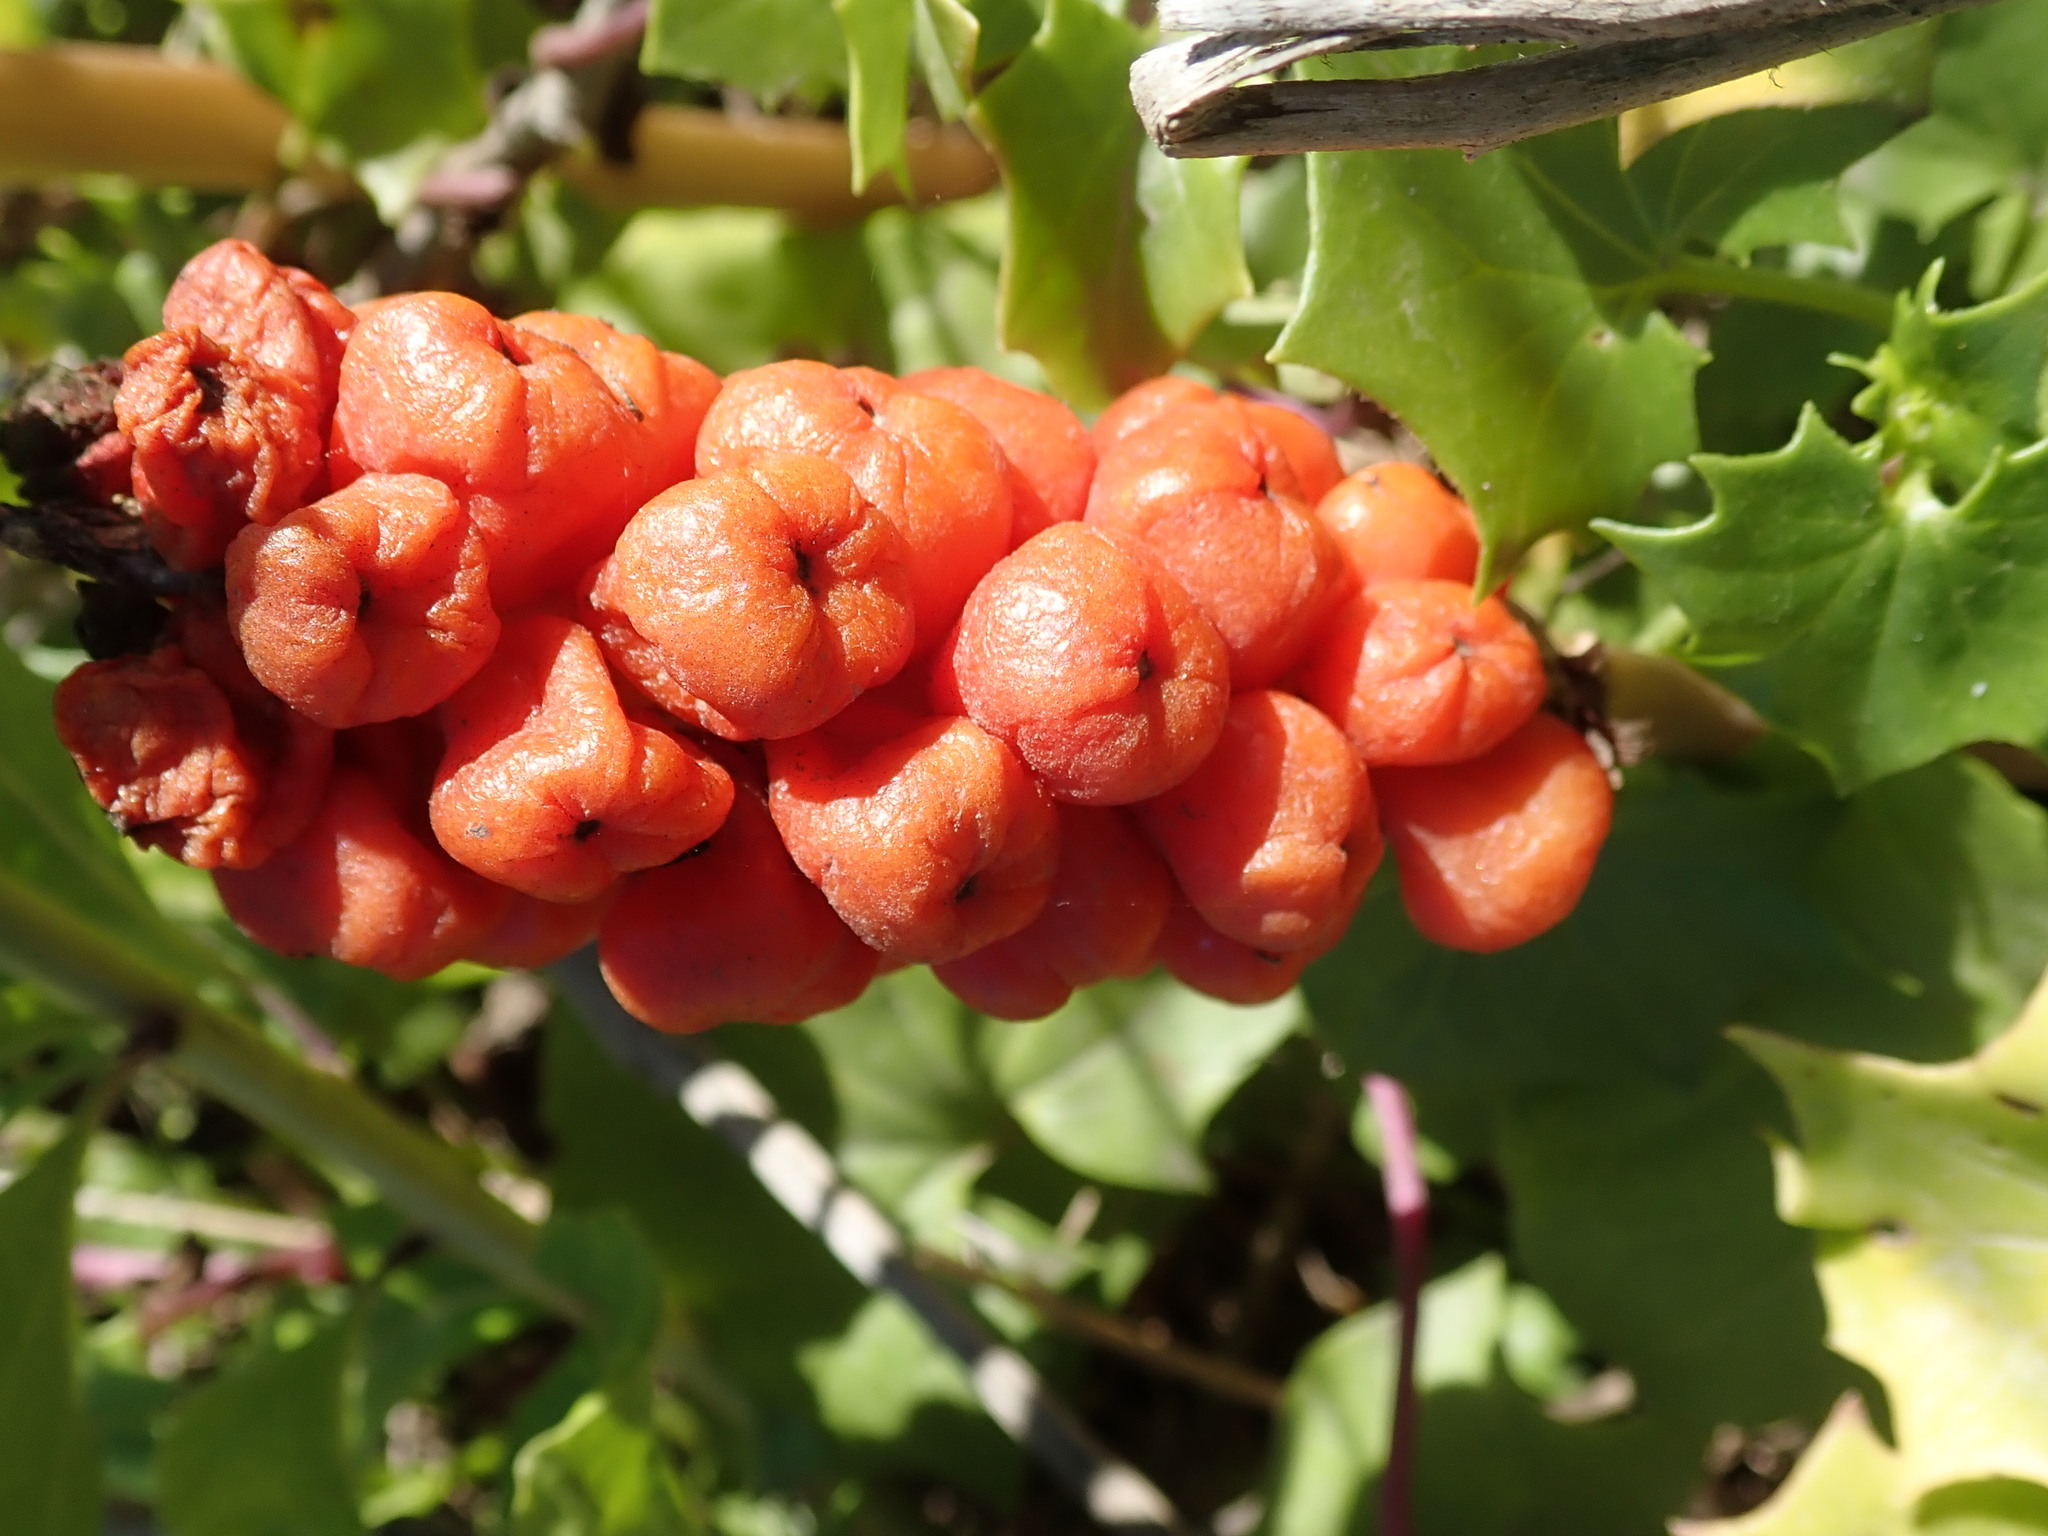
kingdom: Plantae
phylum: Tracheophyta
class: Liliopsida
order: Alismatales
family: Araceae
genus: Arum
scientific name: Arum italicum
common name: Italian lords-and-ladies
